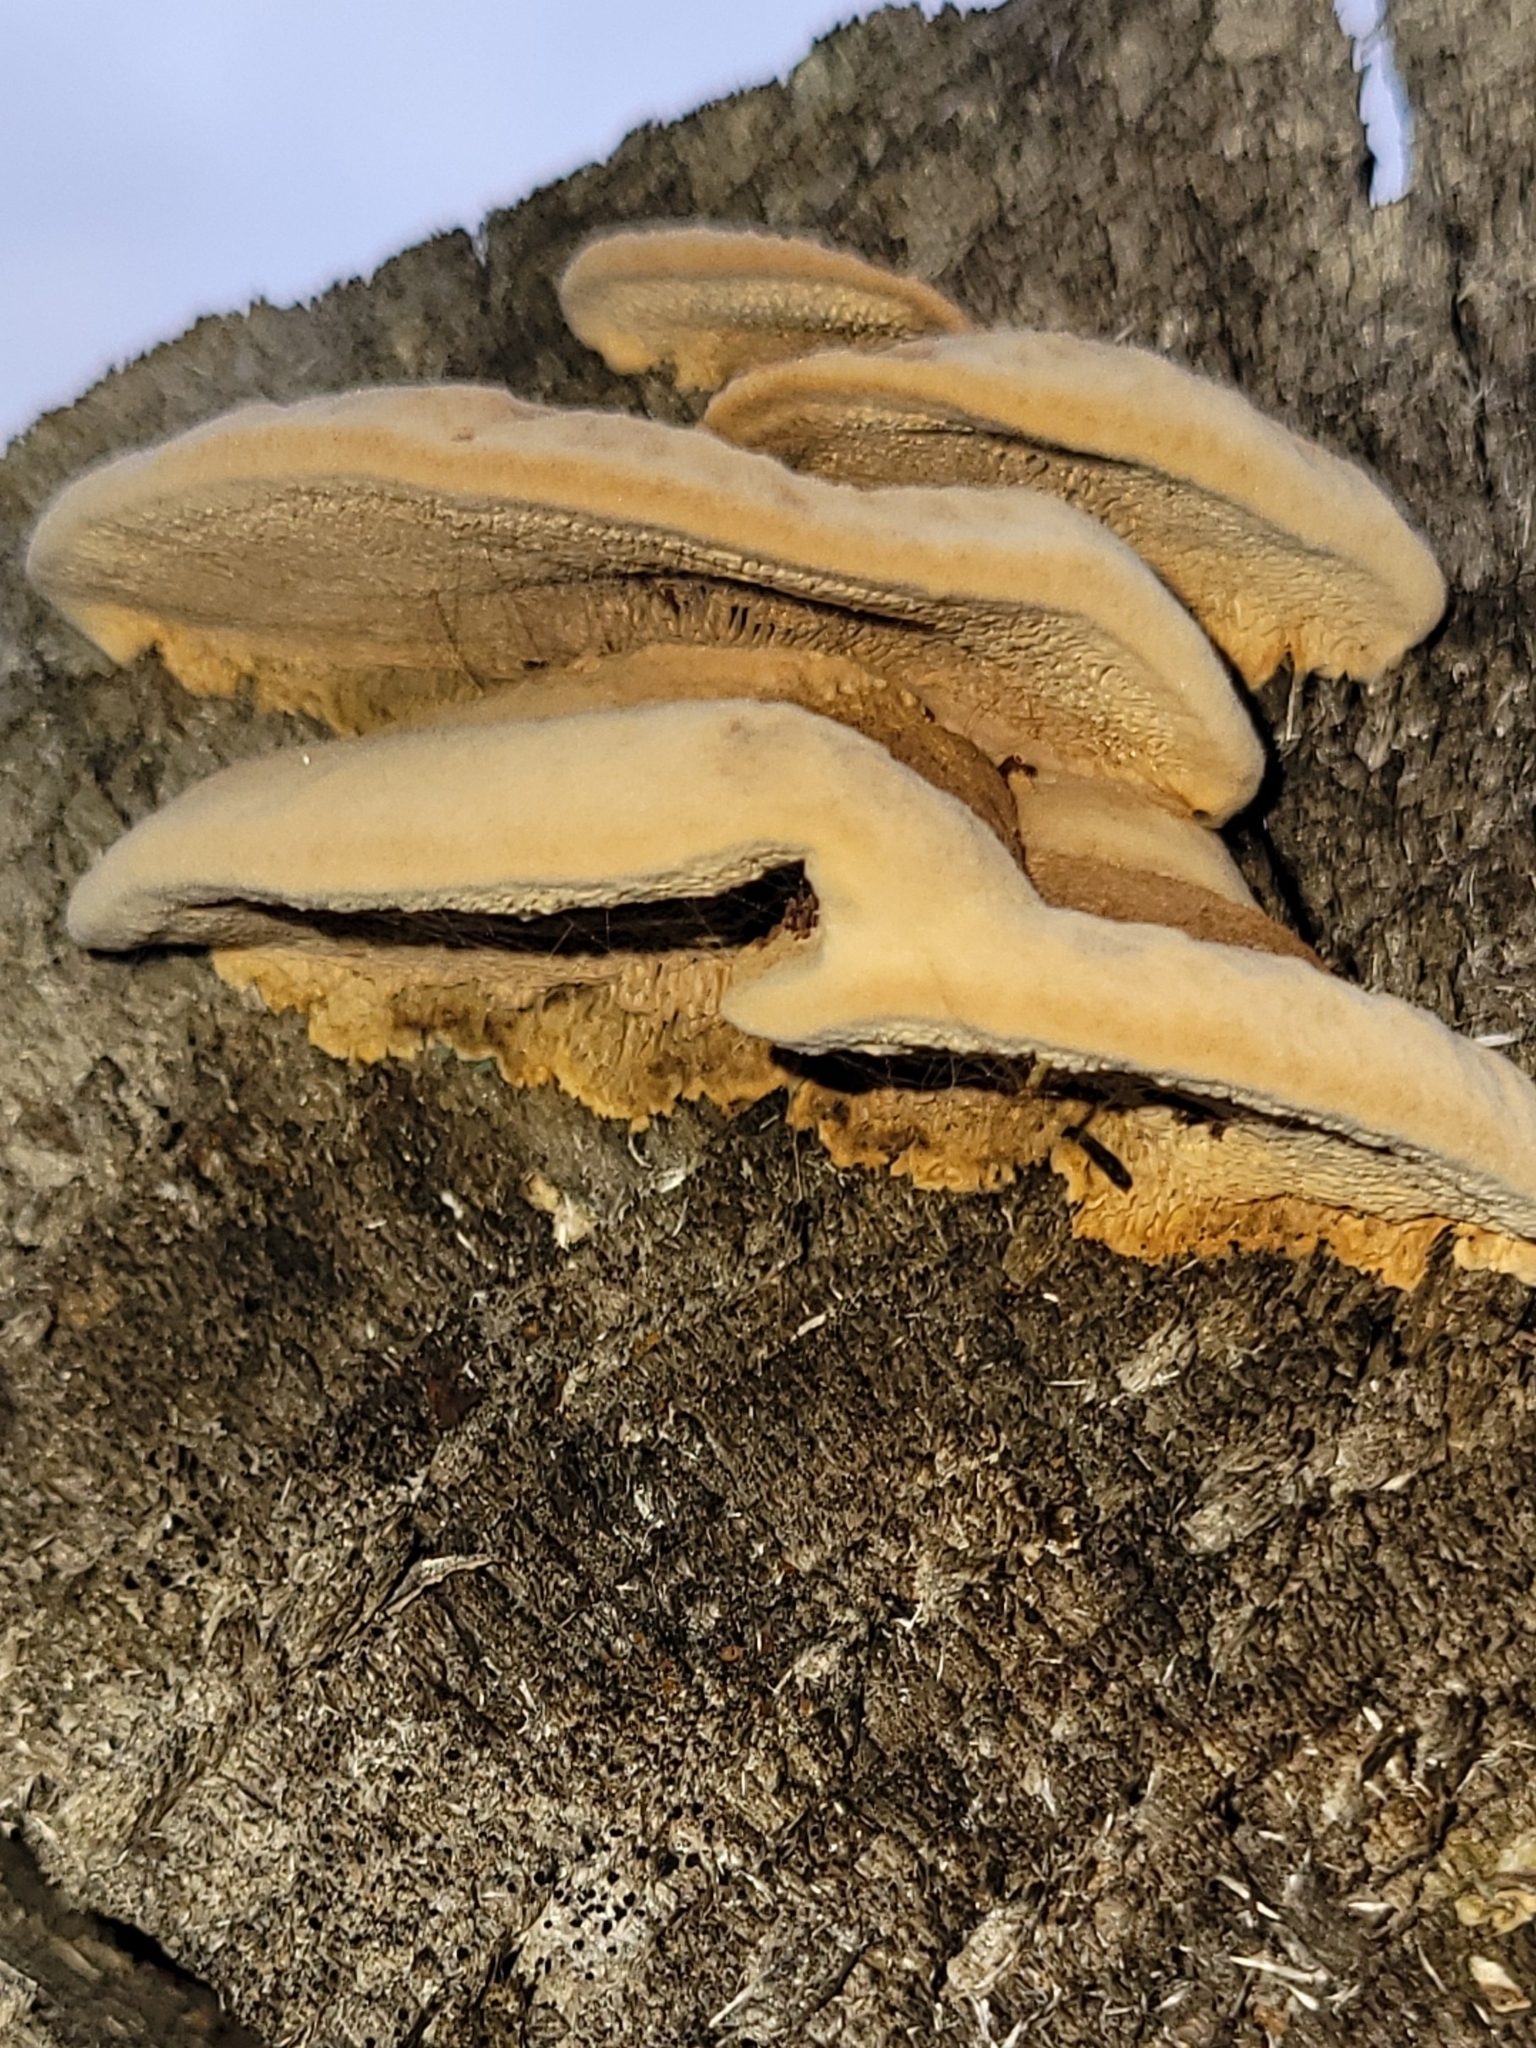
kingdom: Fungi
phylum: Basidiomycota
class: Agaricomycetes
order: Polyporales
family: Polyporaceae
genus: Coriolopsis
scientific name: Coriolopsis gallica
